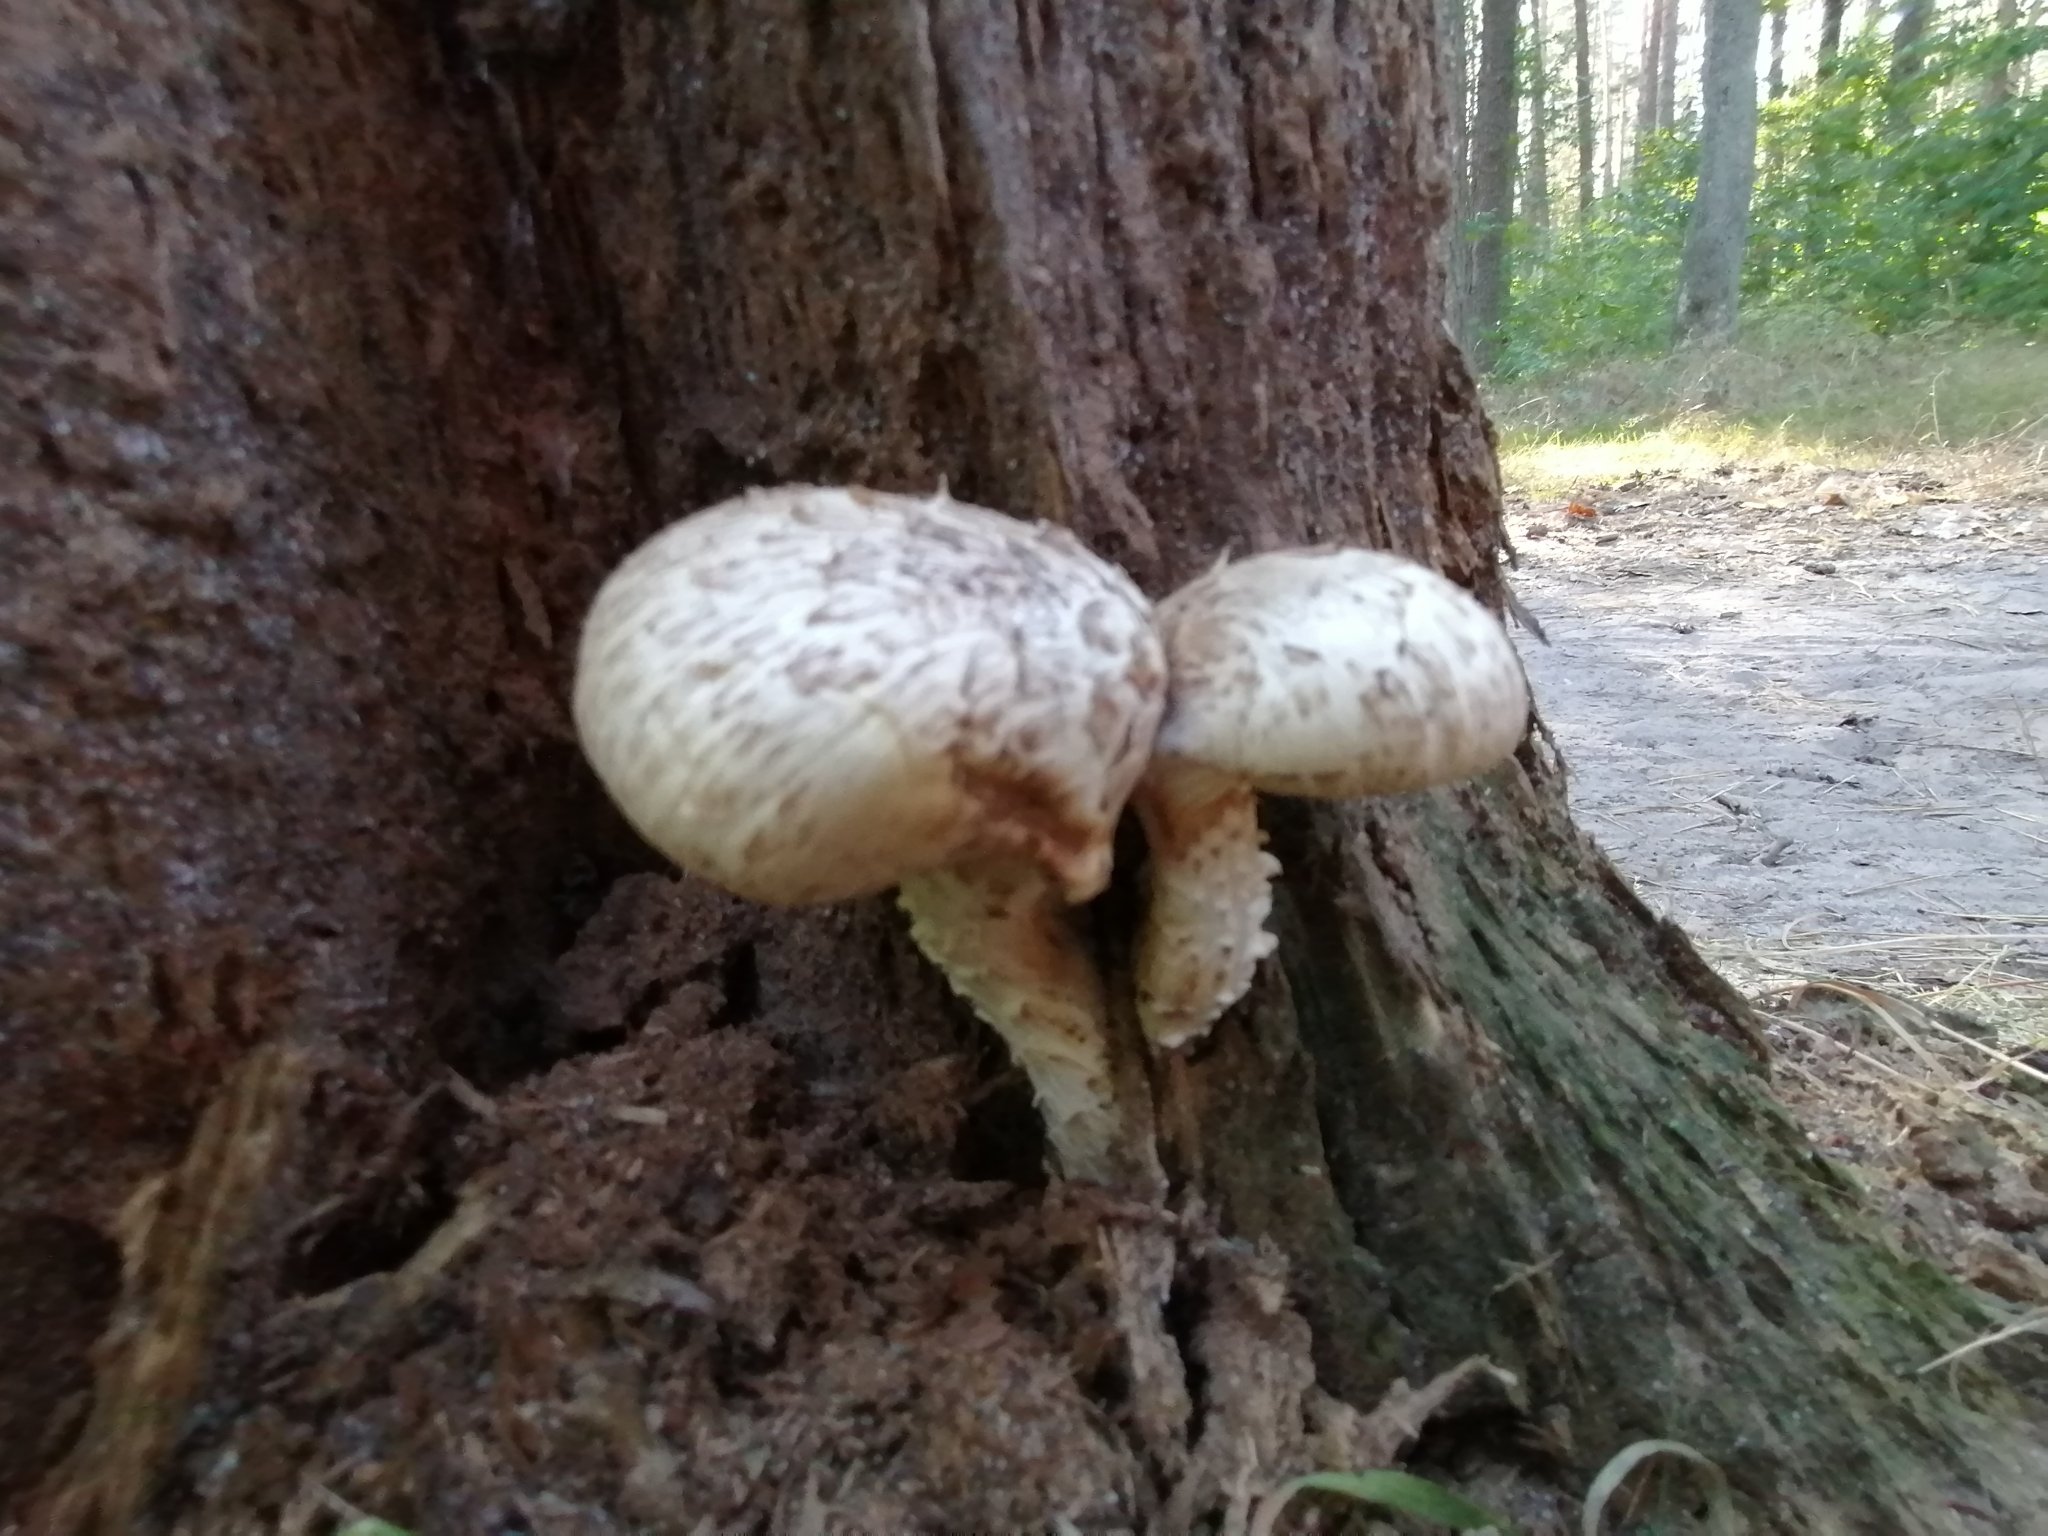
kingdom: Fungi
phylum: Basidiomycota
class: Agaricomycetes
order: Gloeophyllales
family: Gloeophyllaceae
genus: Neolentinus
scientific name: Neolentinus lepideus
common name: Scaly sawgill
